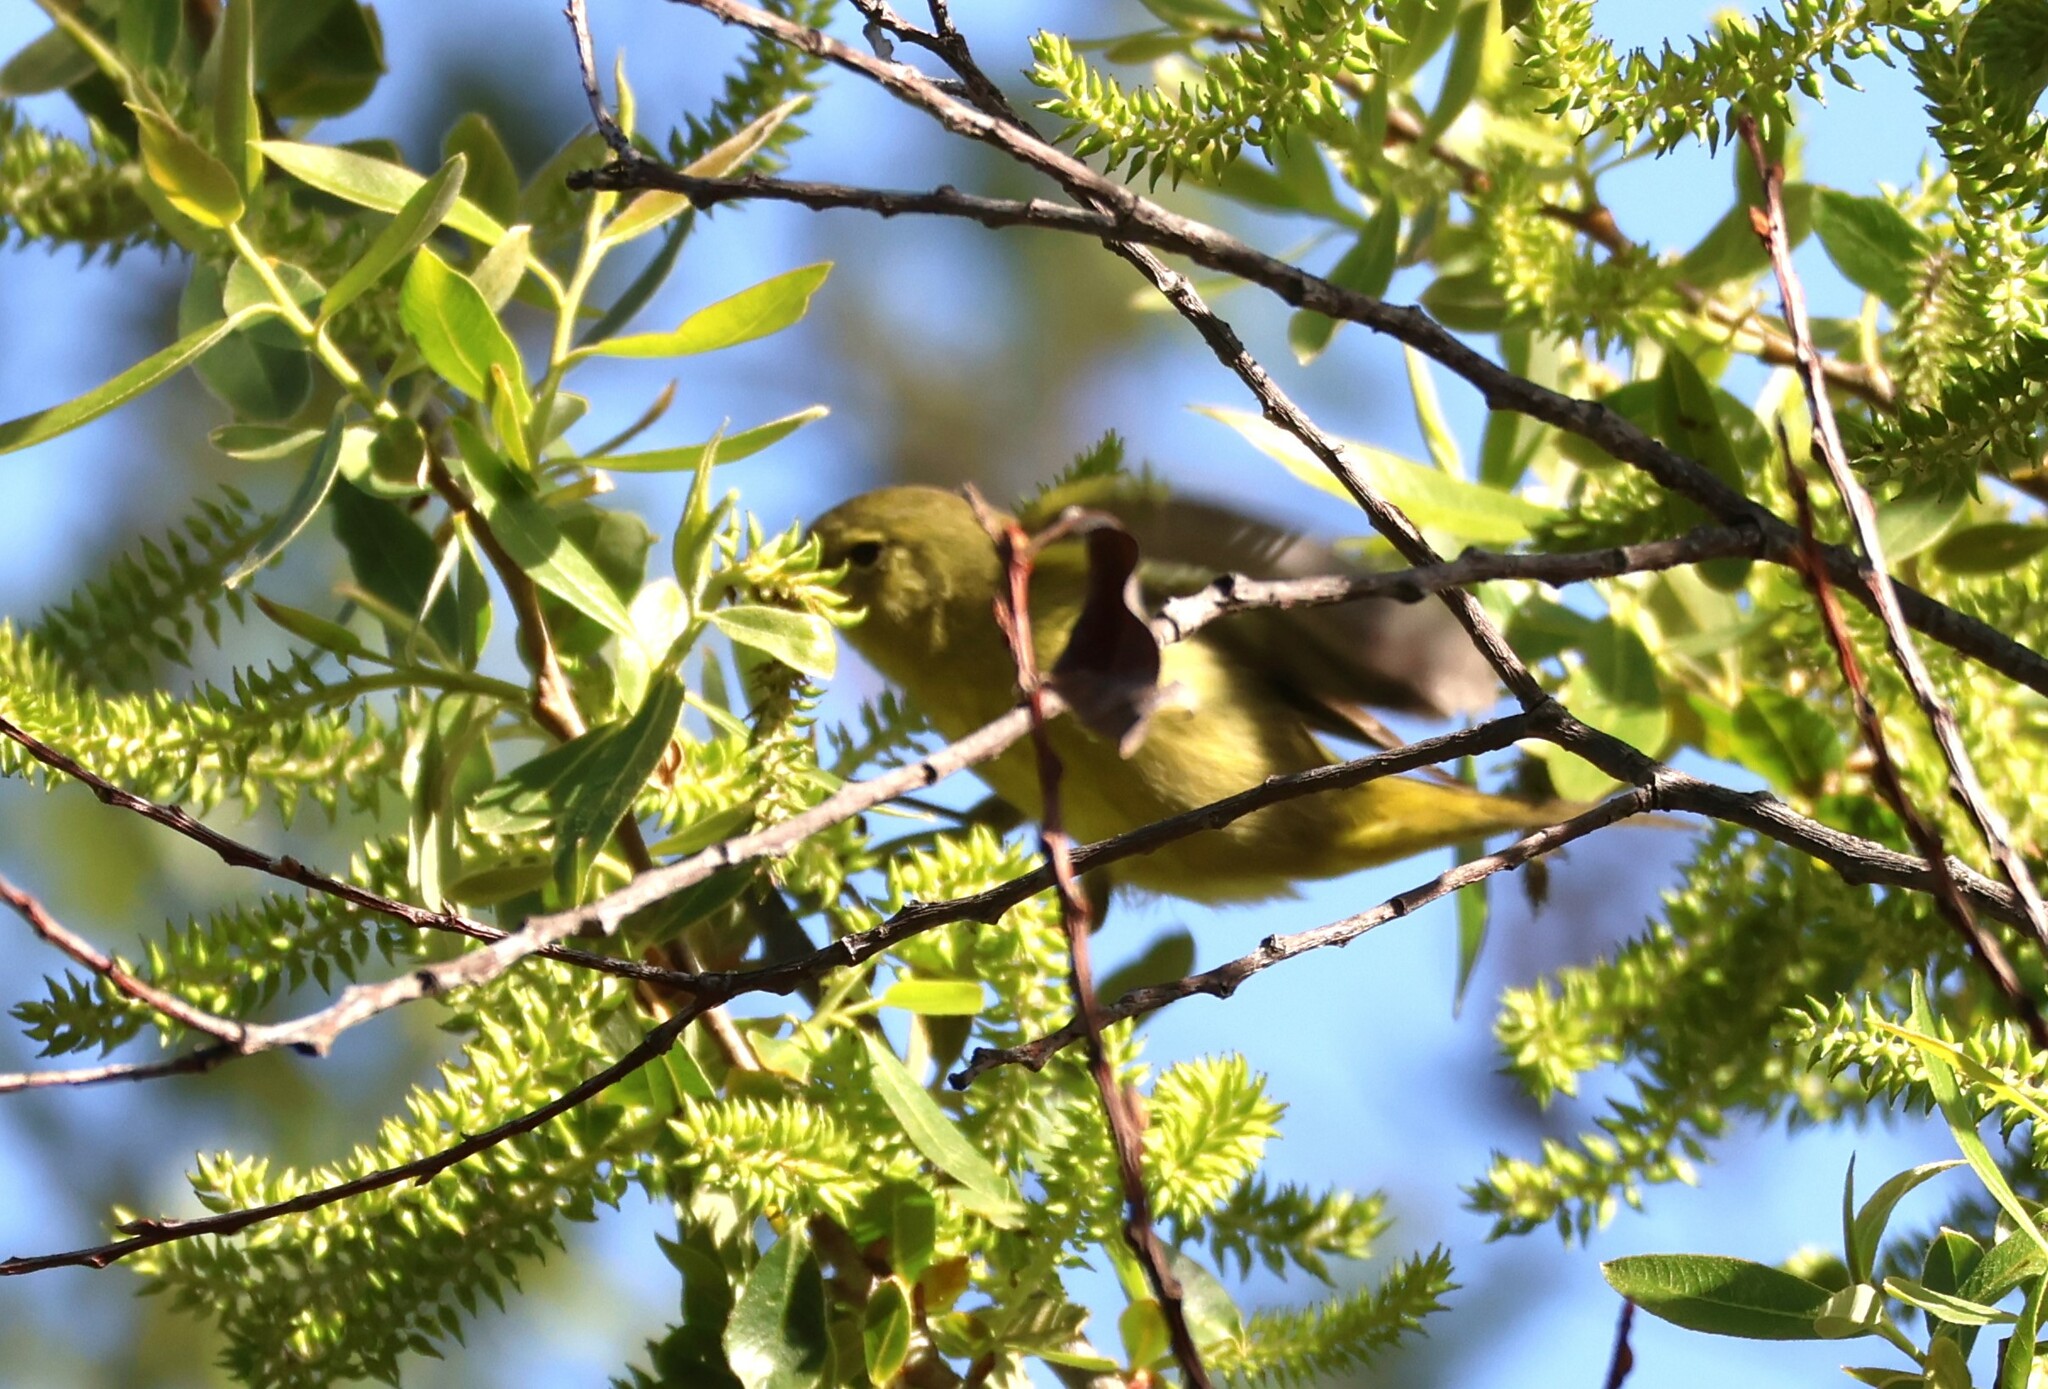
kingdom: Animalia
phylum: Chordata
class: Aves
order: Passeriformes
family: Parulidae
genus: Leiothlypis
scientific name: Leiothlypis celata
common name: Orange-crowned warbler
